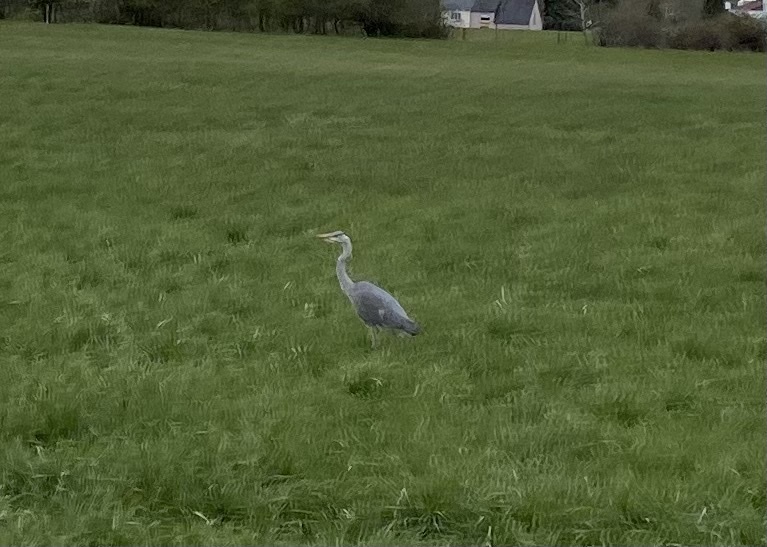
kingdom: Animalia
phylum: Chordata
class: Aves
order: Pelecaniformes
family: Ardeidae
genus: Ardea
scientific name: Ardea cinerea
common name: Grey heron
